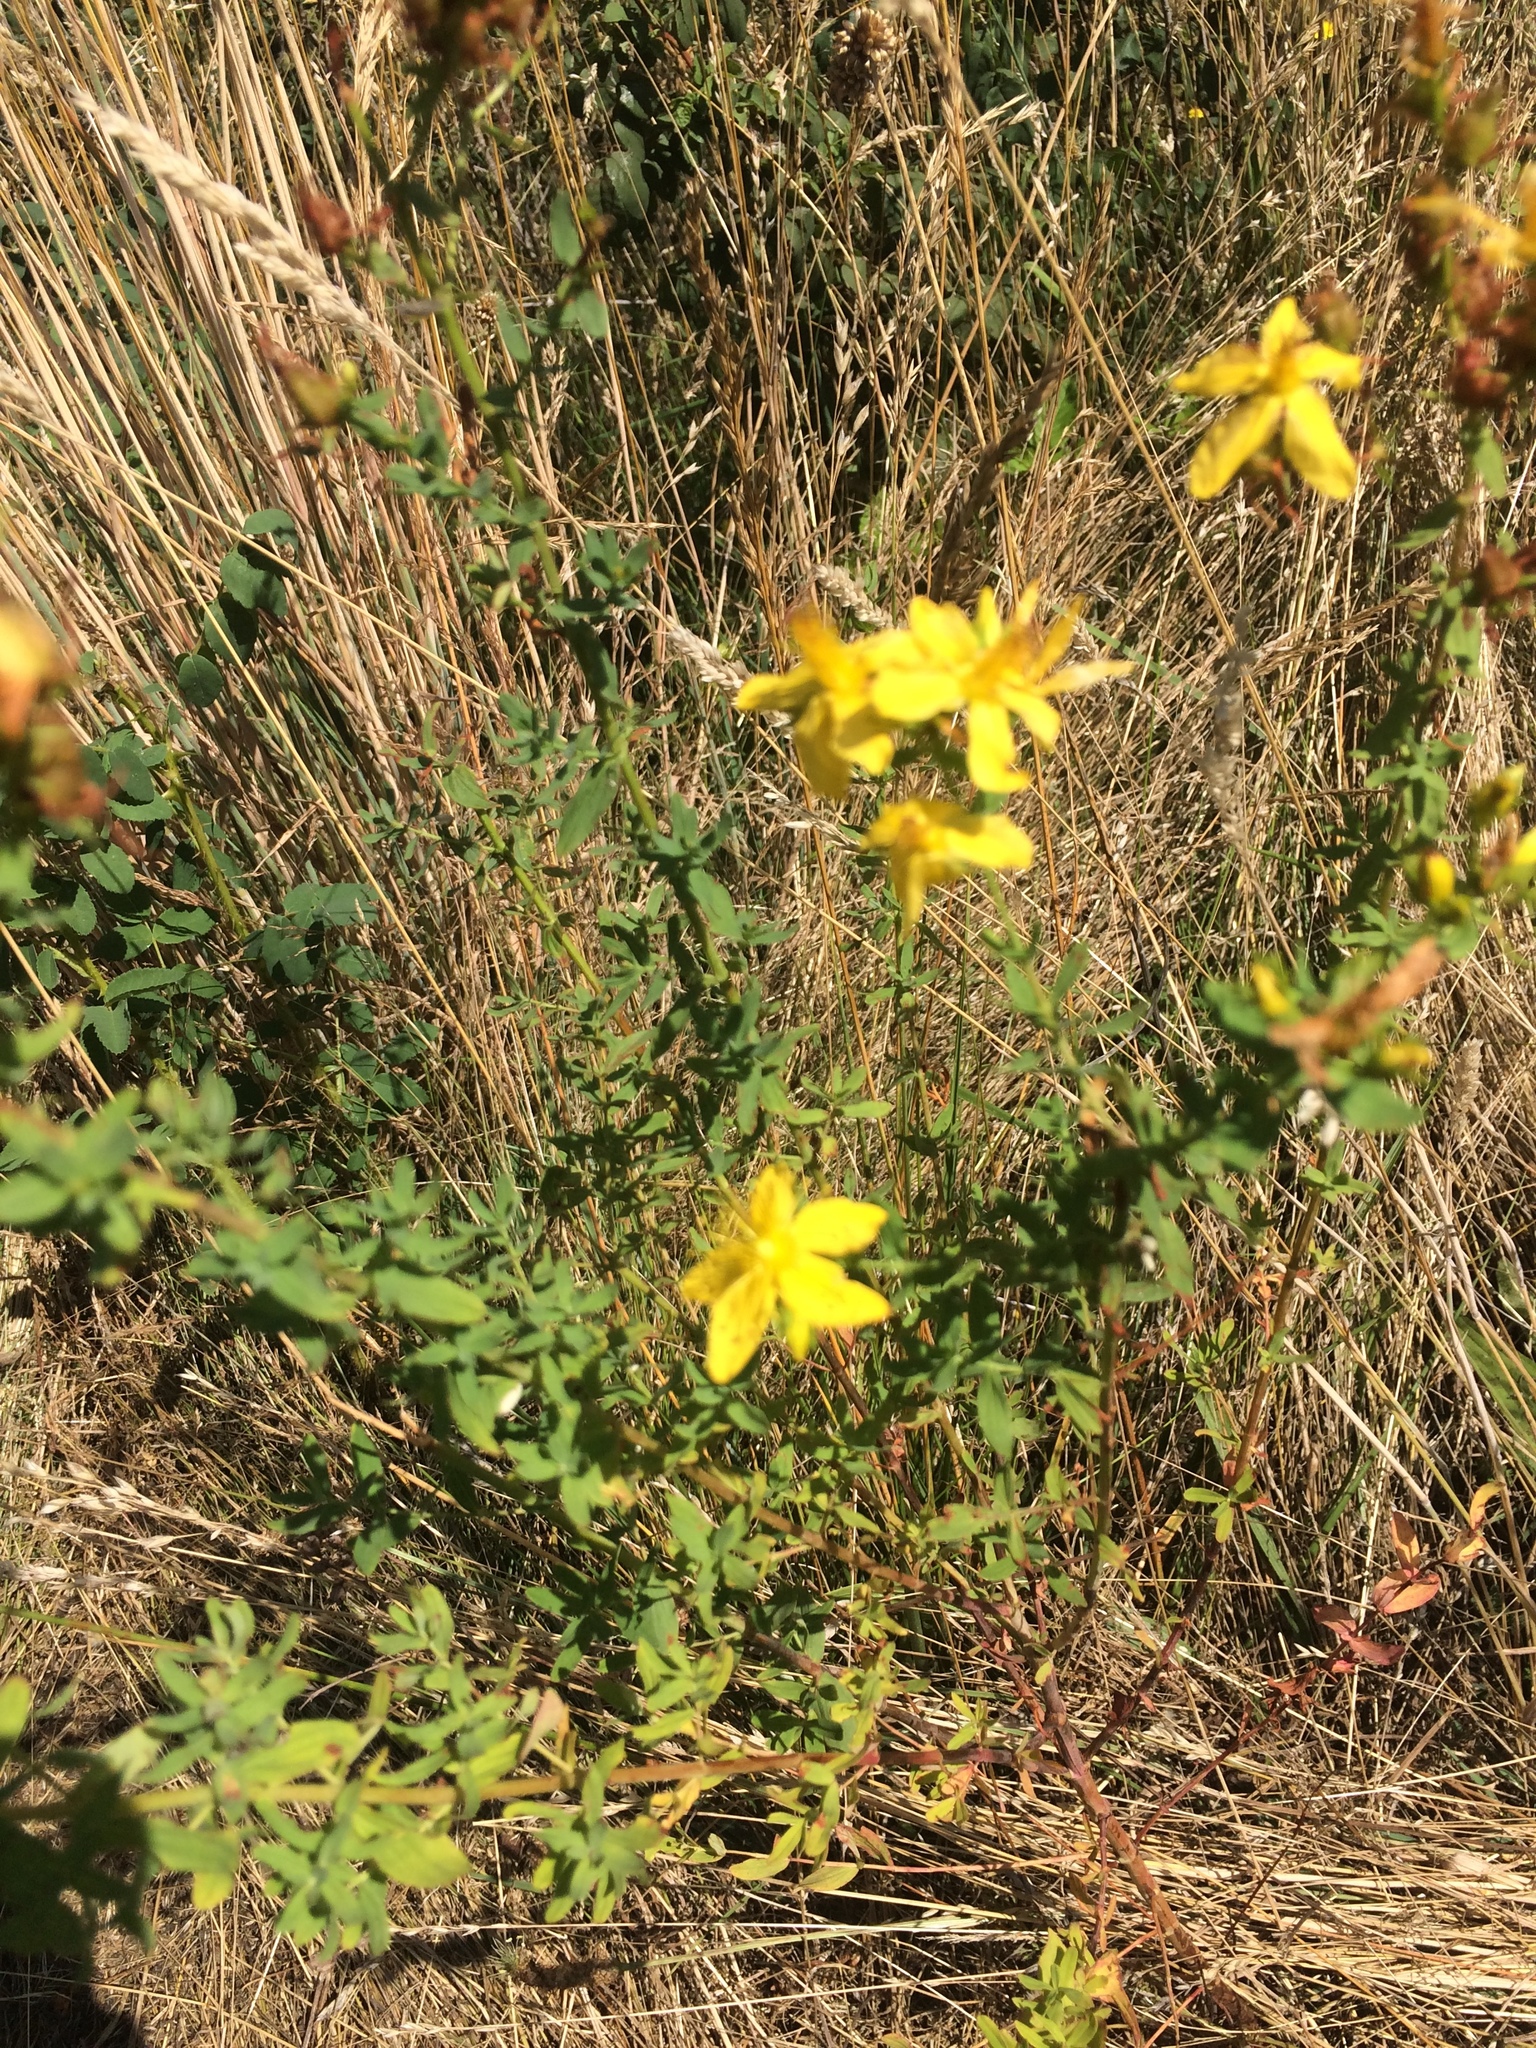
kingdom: Plantae
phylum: Tracheophyta
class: Magnoliopsida
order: Malpighiales
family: Hypericaceae
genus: Hypericum
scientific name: Hypericum perforatum
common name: Common st. johnswort
